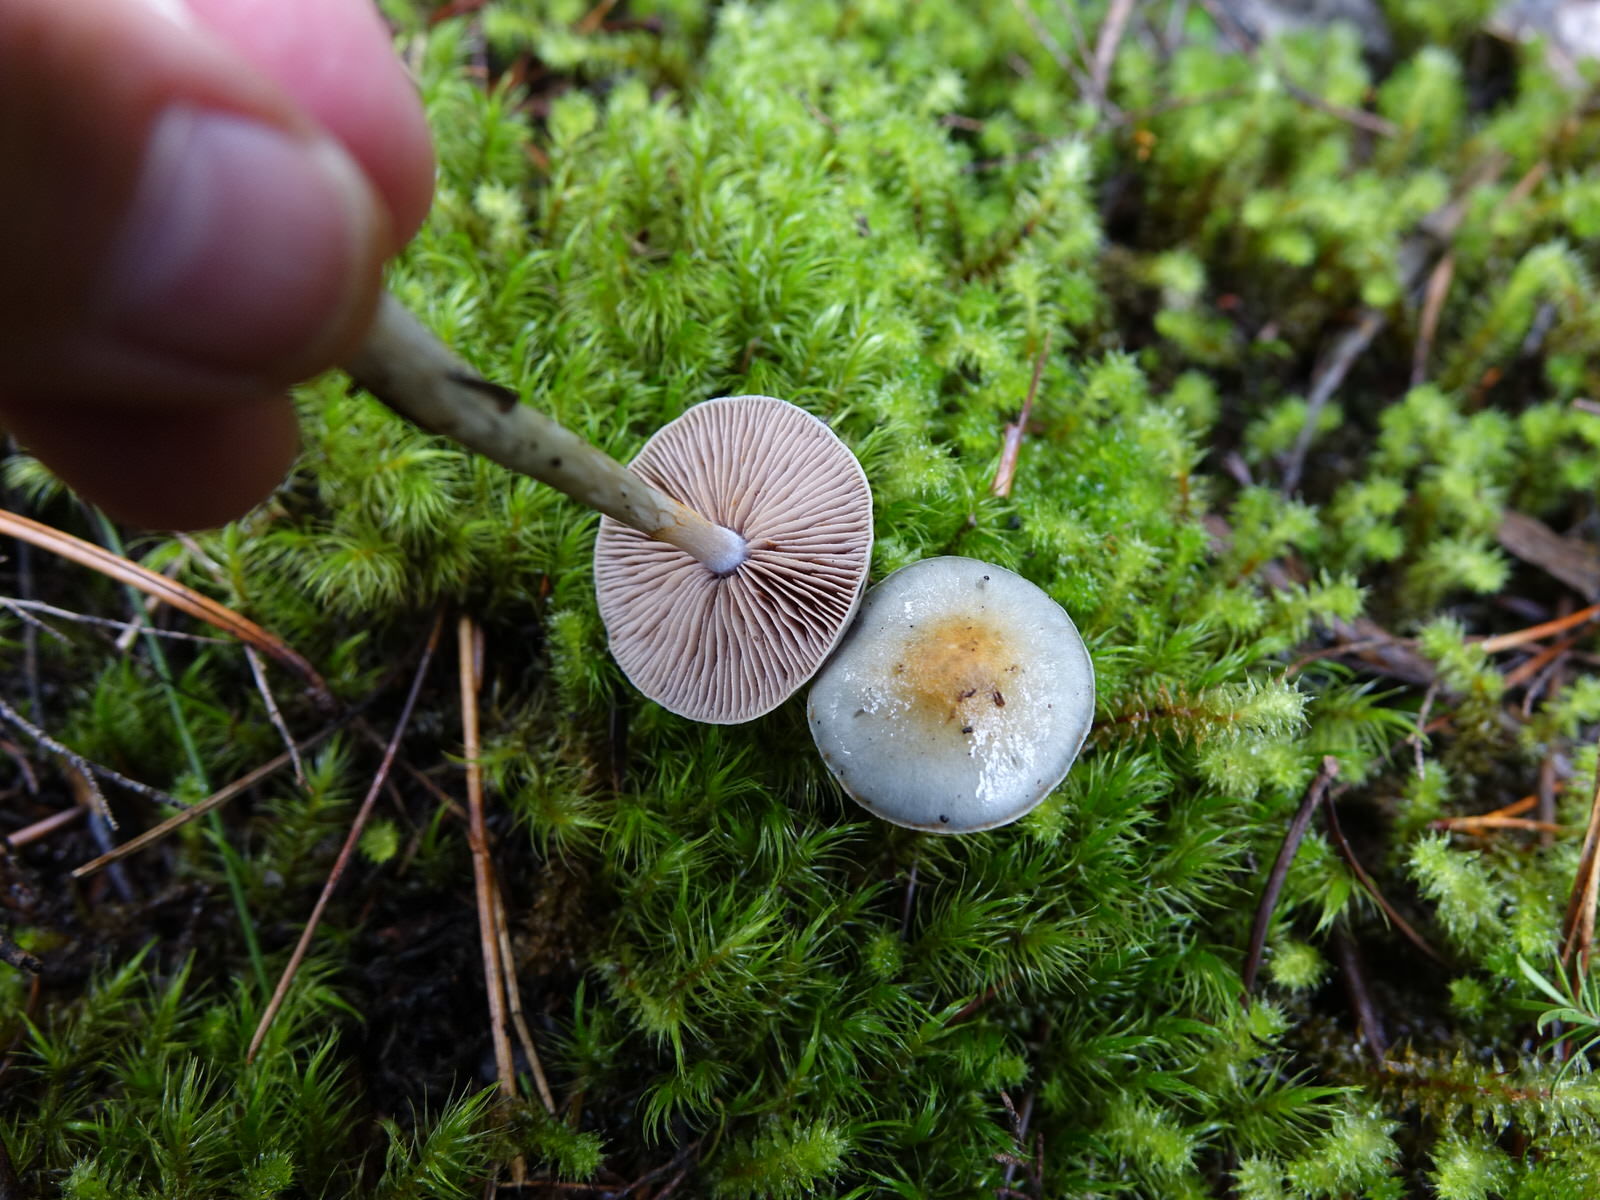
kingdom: Fungi
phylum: Basidiomycota
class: Agaricomycetes
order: Agaricales
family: Cortinariaceae
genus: Cortinarius
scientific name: Cortinarius rotundisporus
